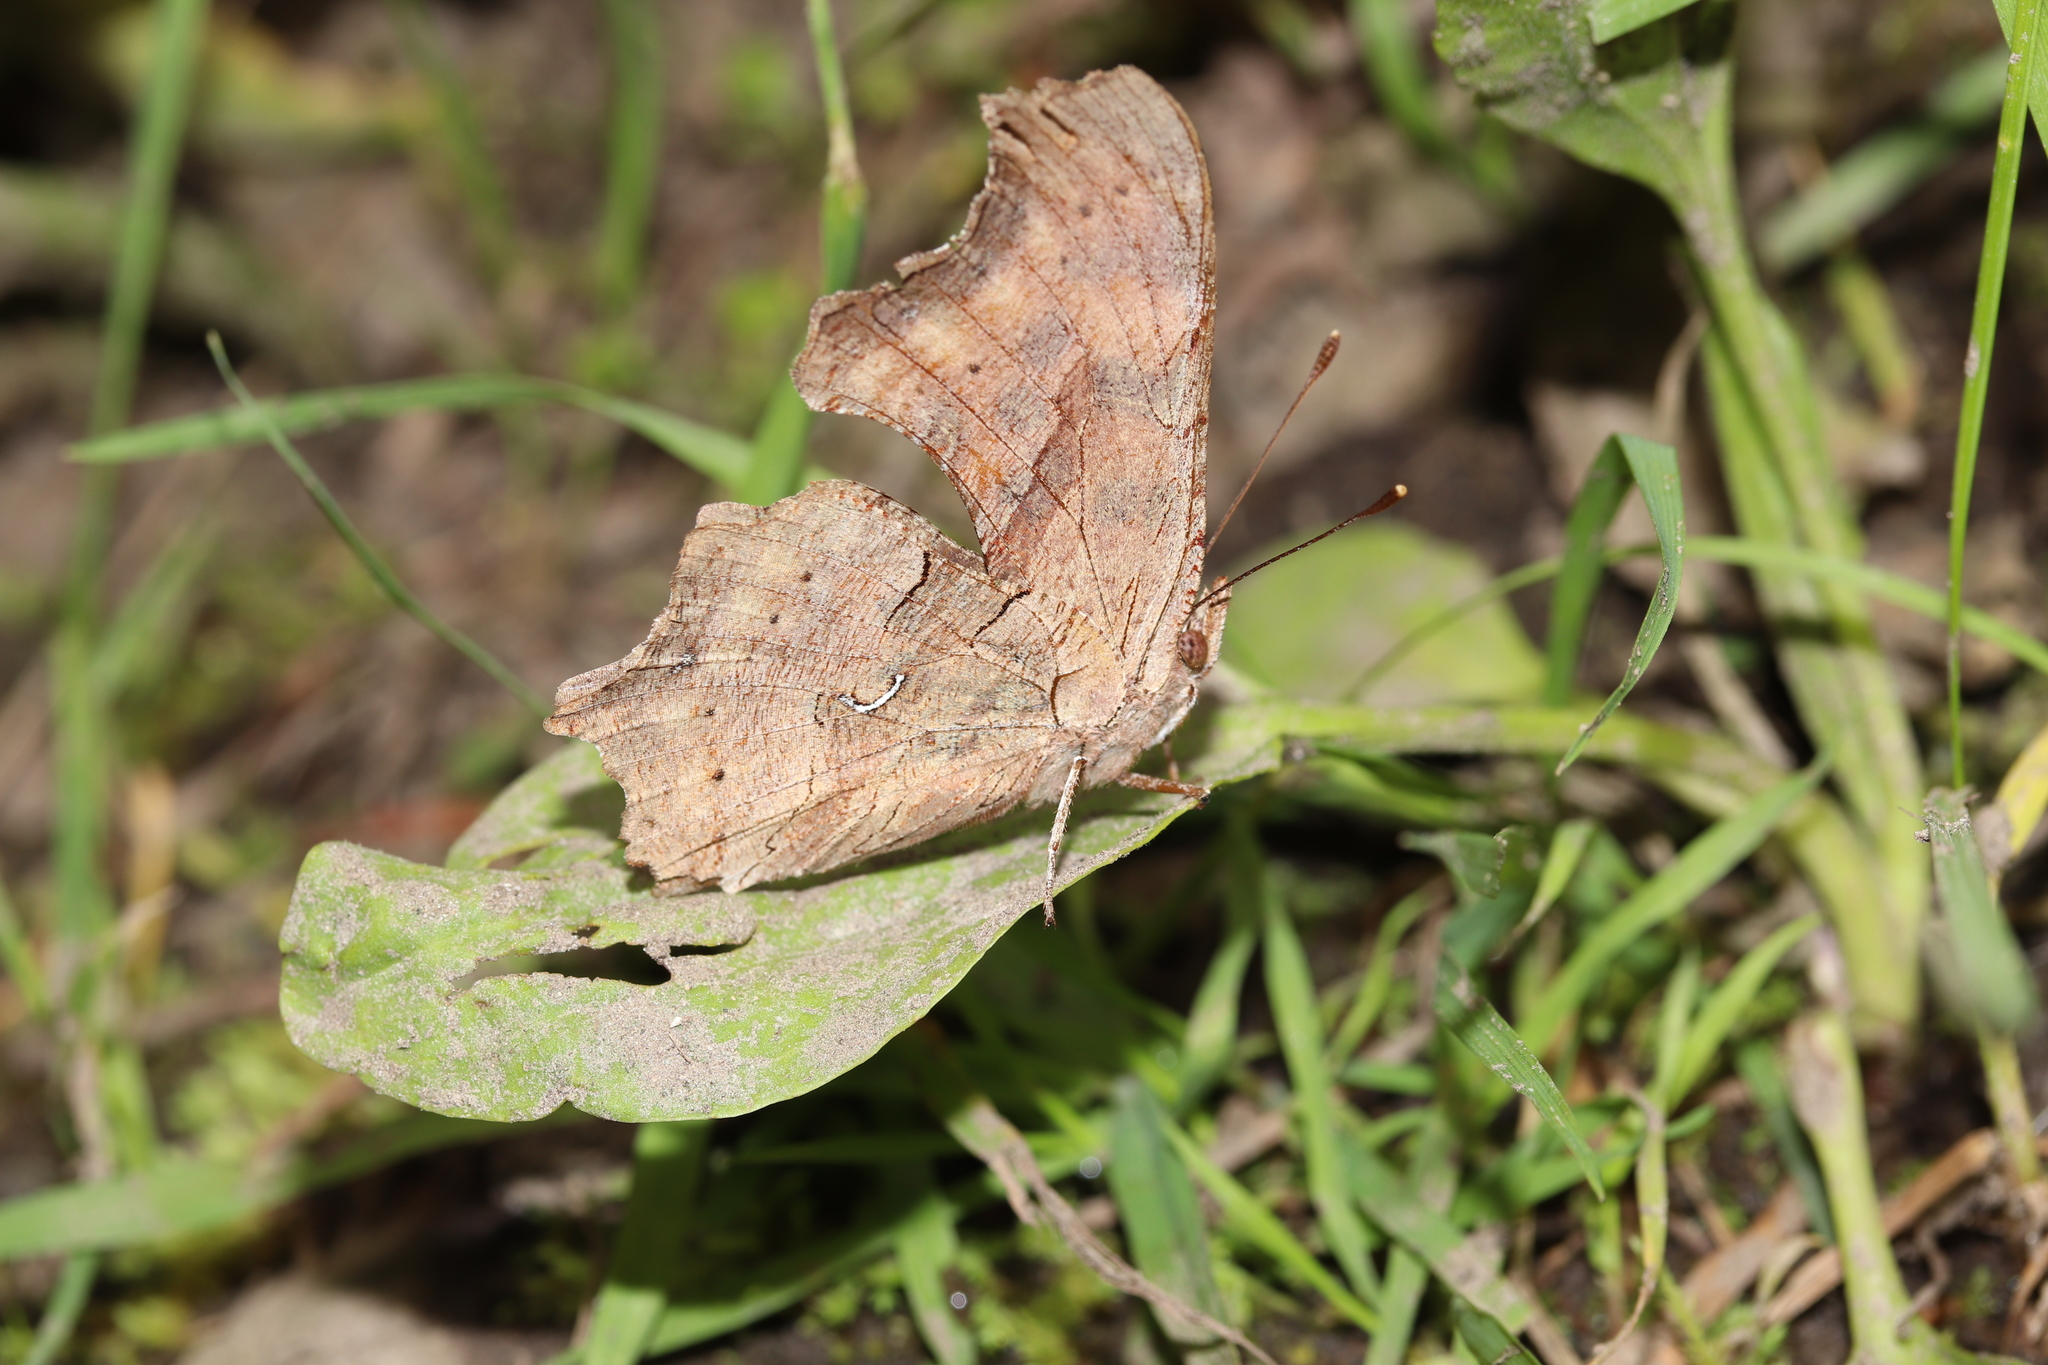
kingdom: Animalia
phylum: Arthropoda
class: Insecta
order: Lepidoptera
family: Nymphalidae
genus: Polygonia
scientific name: Polygonia satyrus
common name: Satyr angle wing
